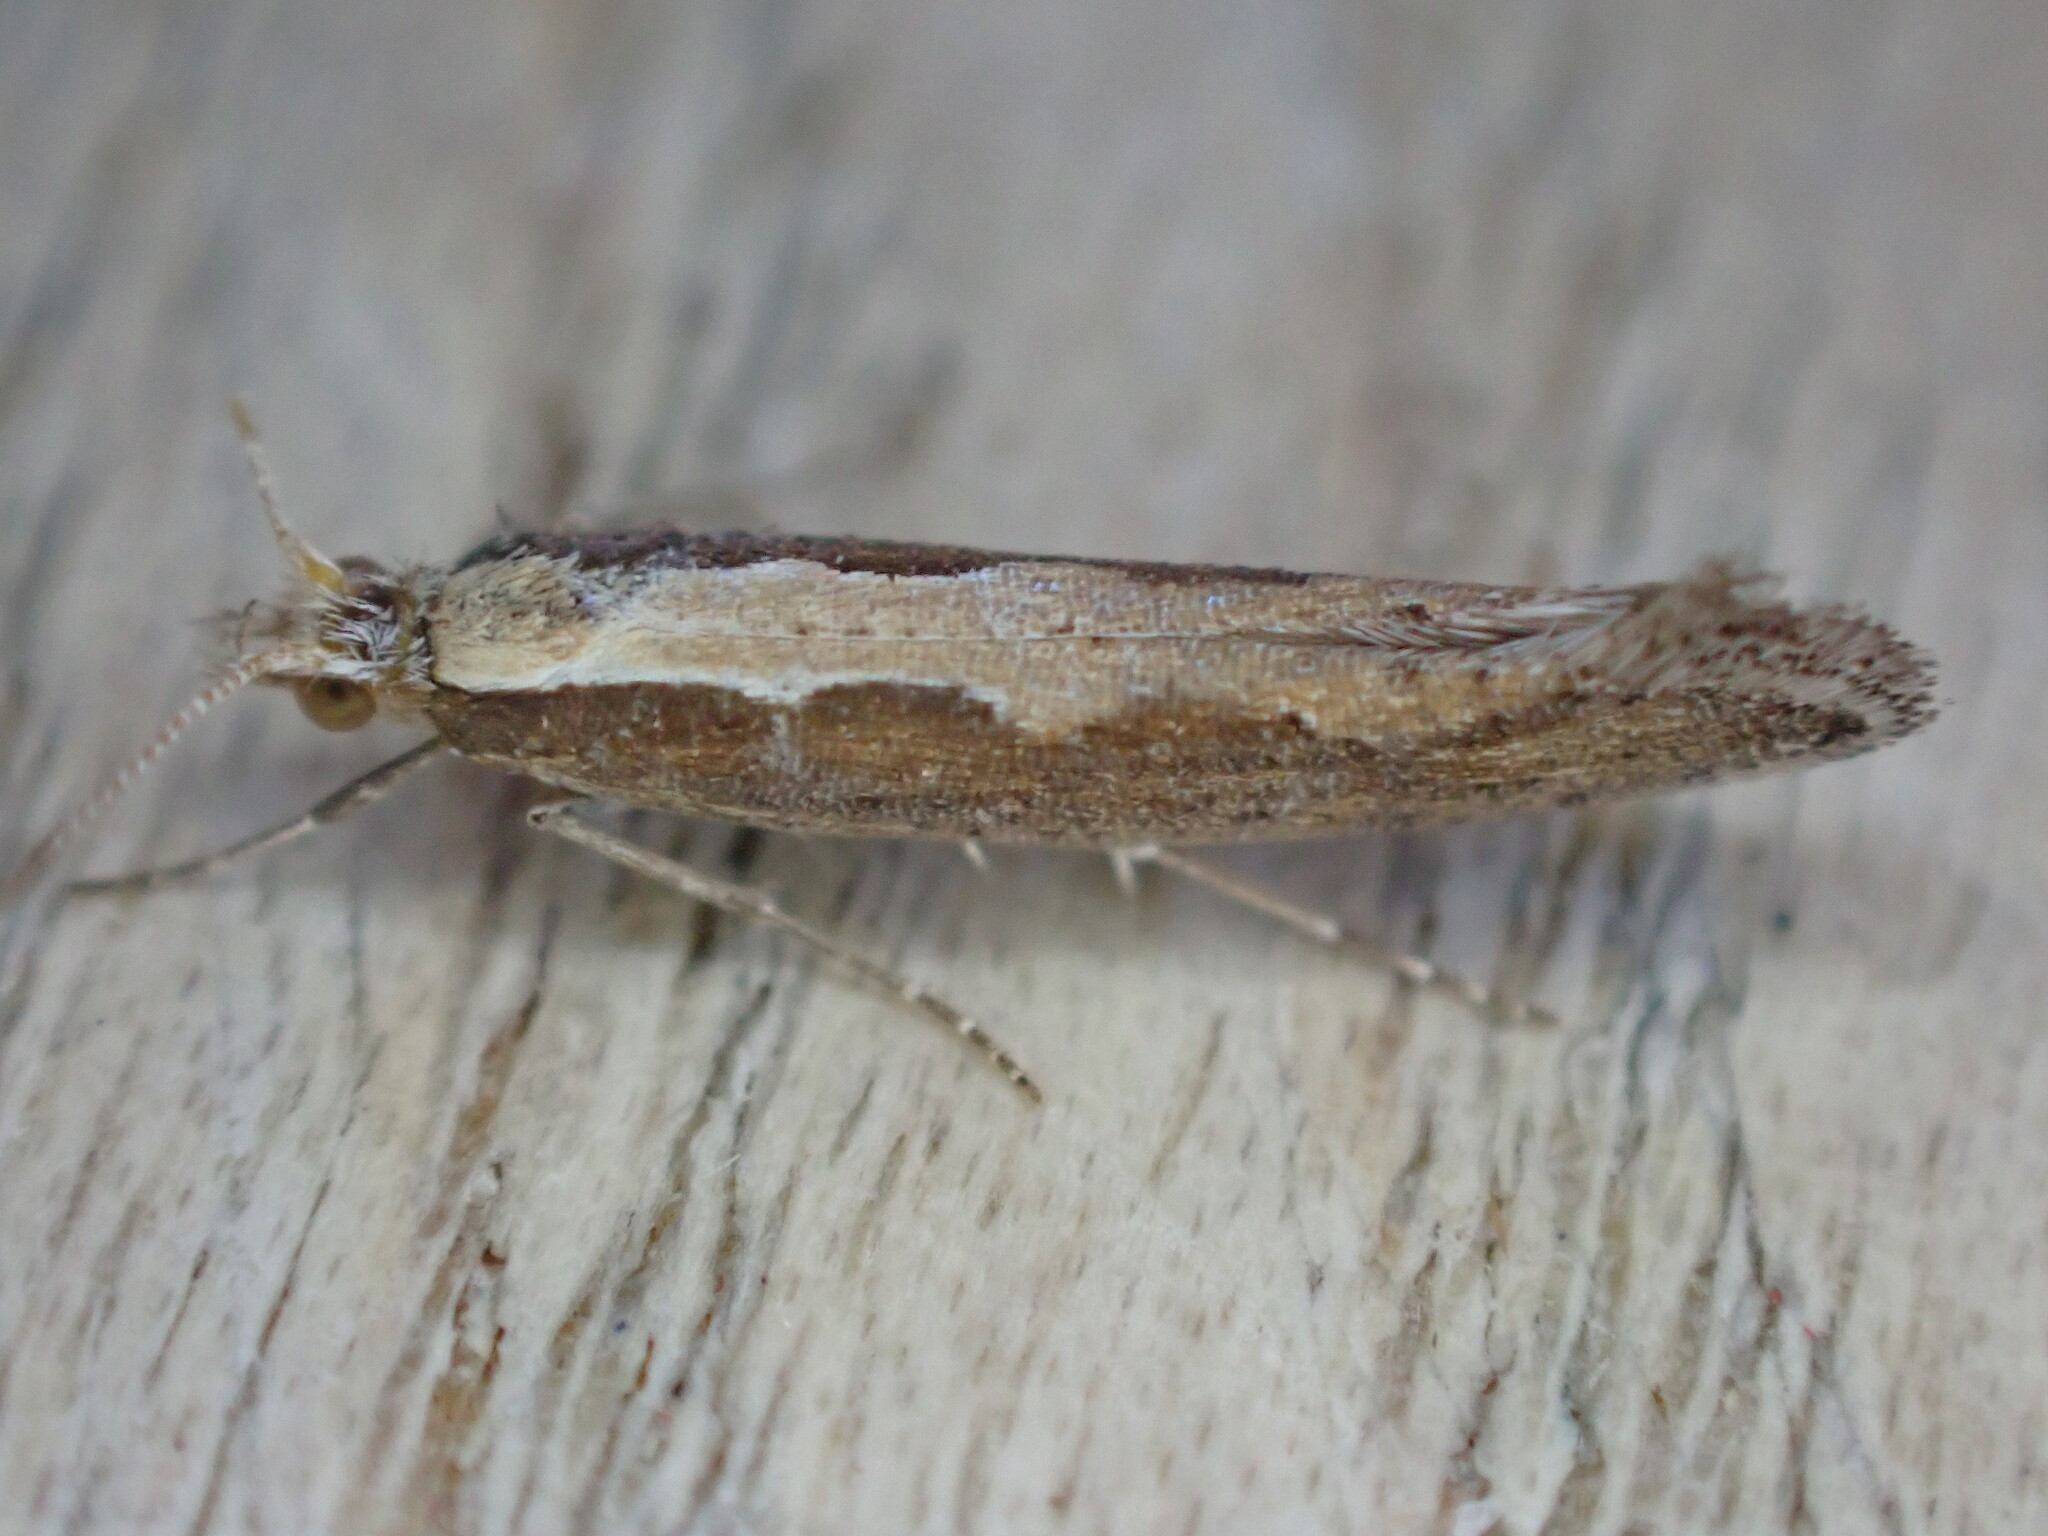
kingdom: Animalia
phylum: Arthropoda
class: Insecta
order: Lepidoptera
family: Plutellidae
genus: Plutella
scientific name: Plutella xylostella
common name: Diamond-back moth
